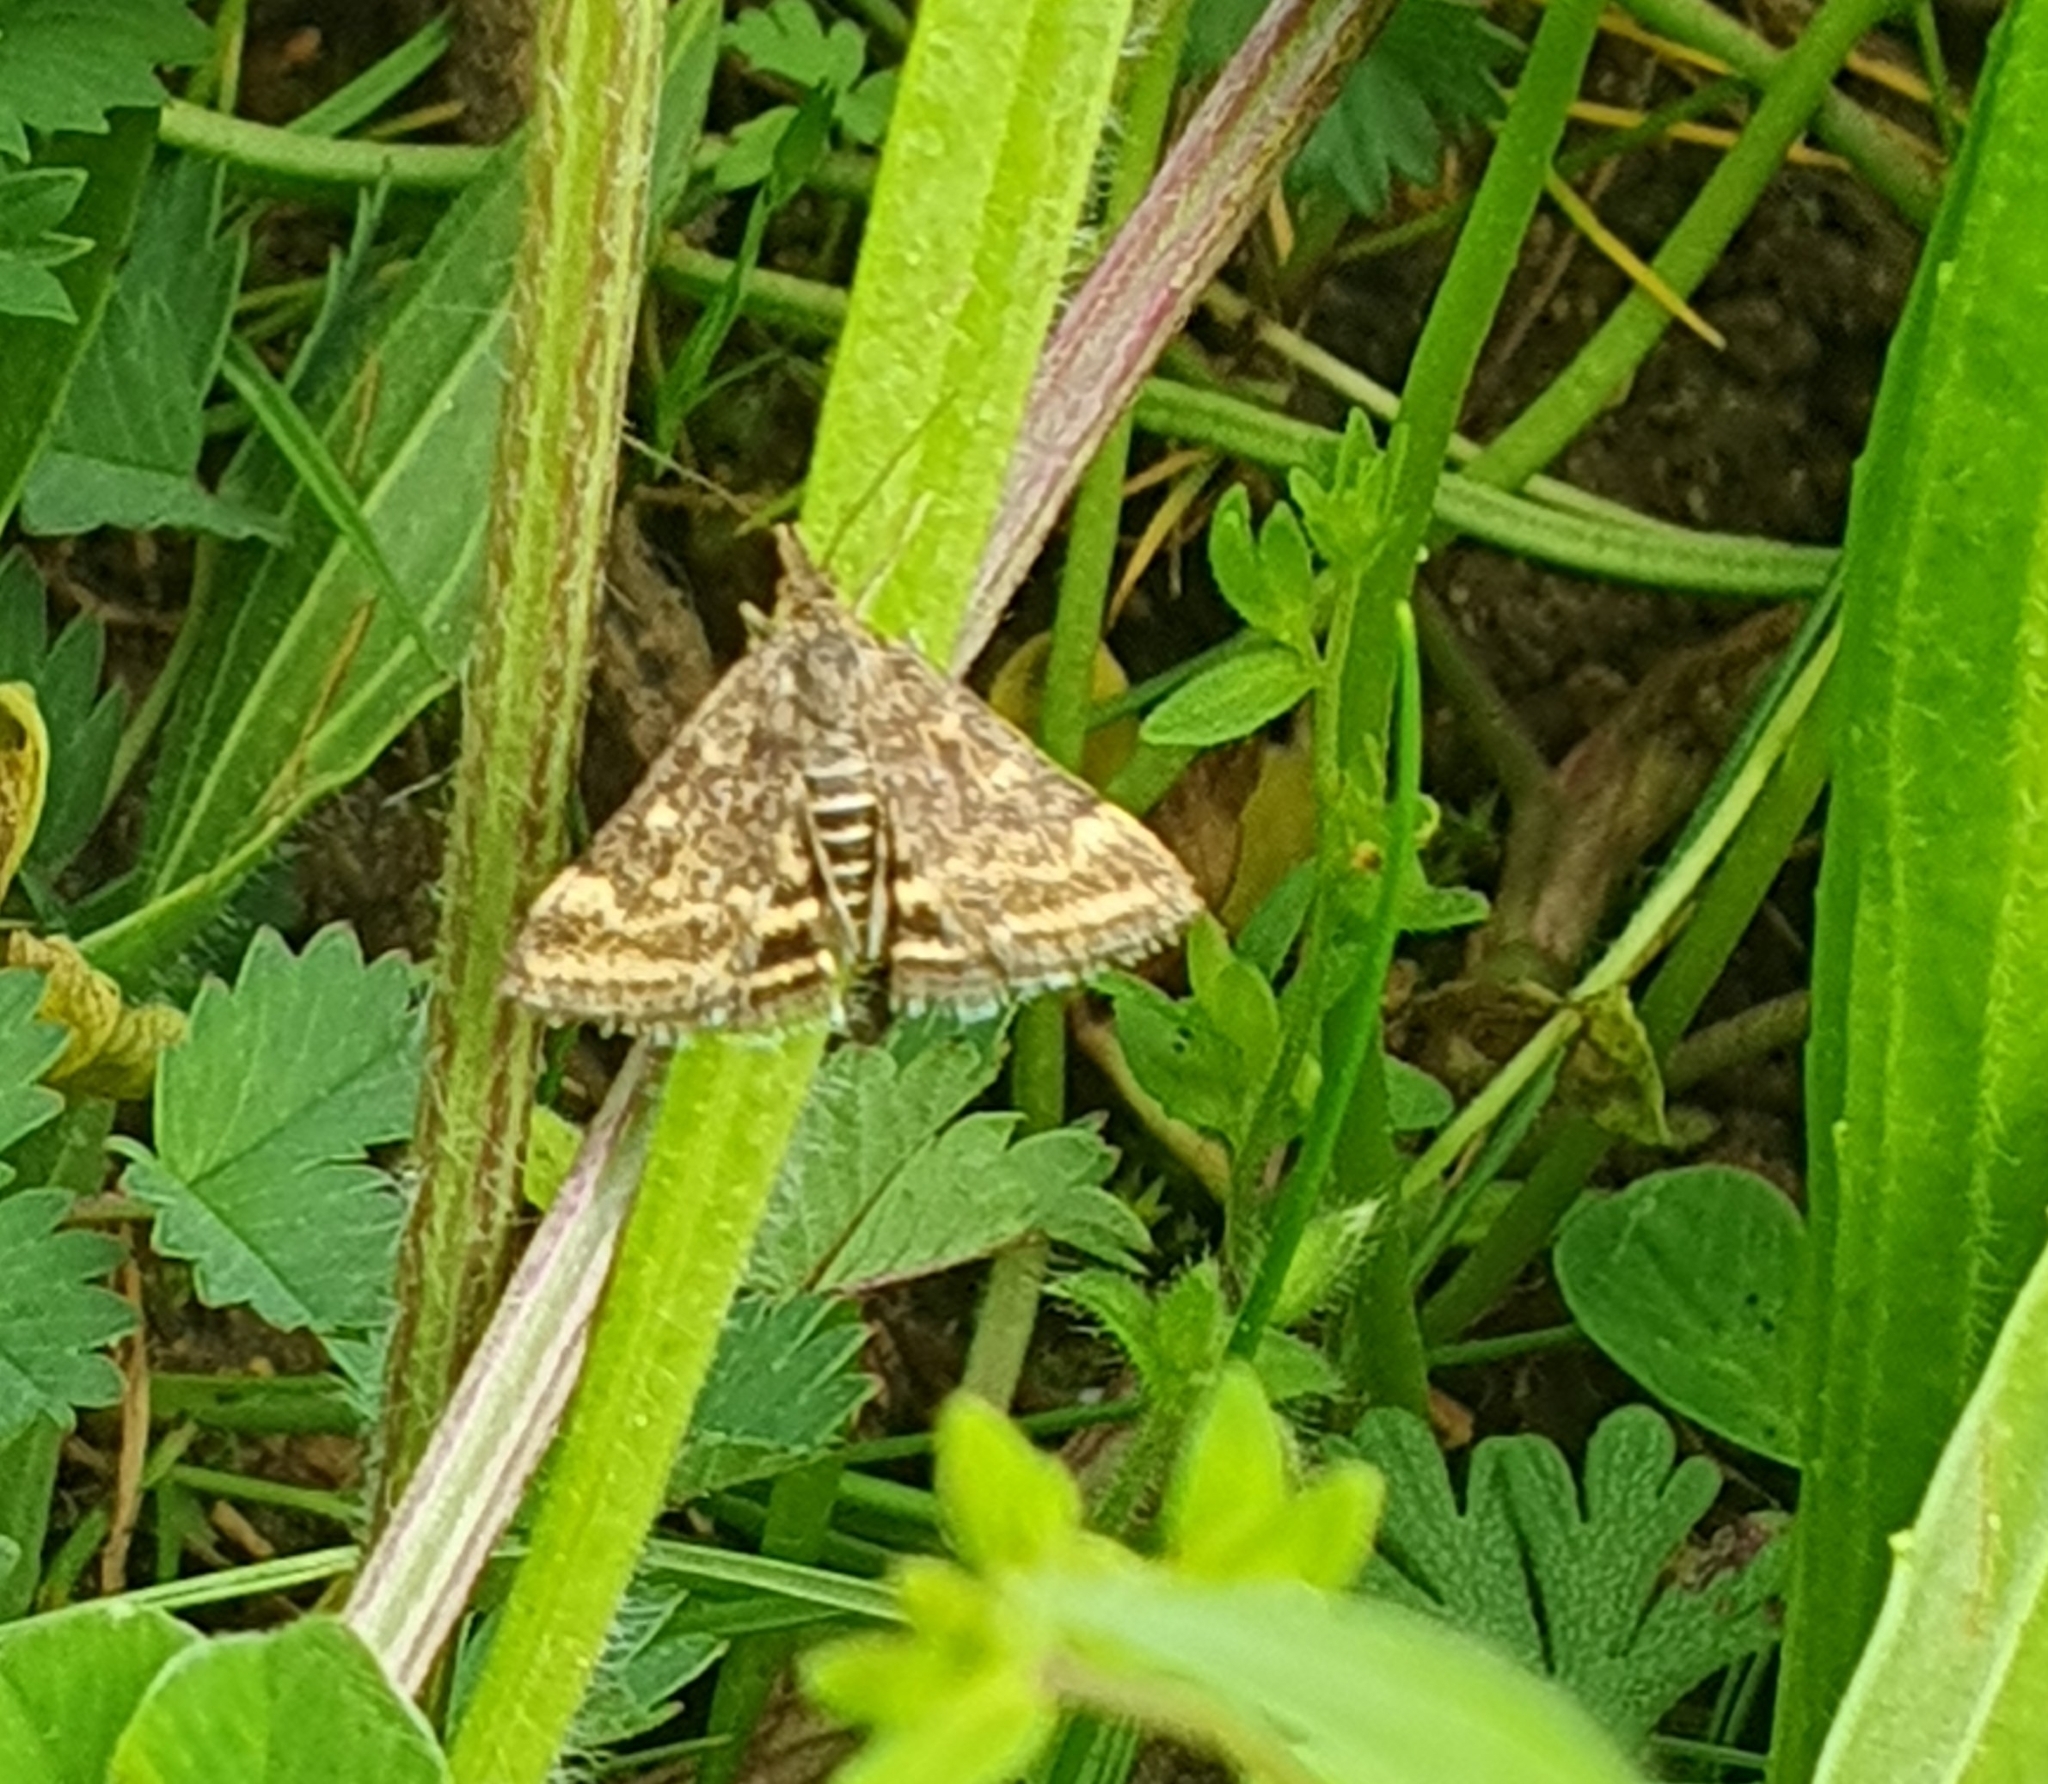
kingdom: Animalia
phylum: Arthropoda
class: Insecta
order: Lepidoptera
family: Crambidae
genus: Pyrausta
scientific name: Pyrausta despicata
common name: Straw-barred pearl
